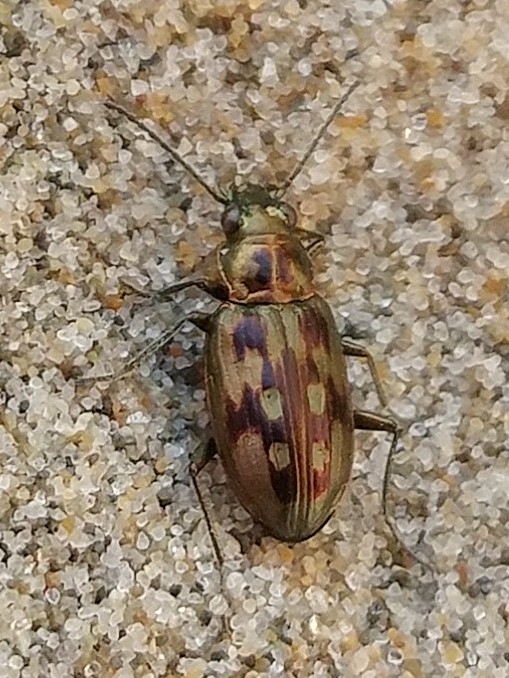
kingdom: Animalia
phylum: Arthropoda
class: Insecta
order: Coleoptera
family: Carabidae
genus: Bembidion
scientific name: Bembidion zephyrum
